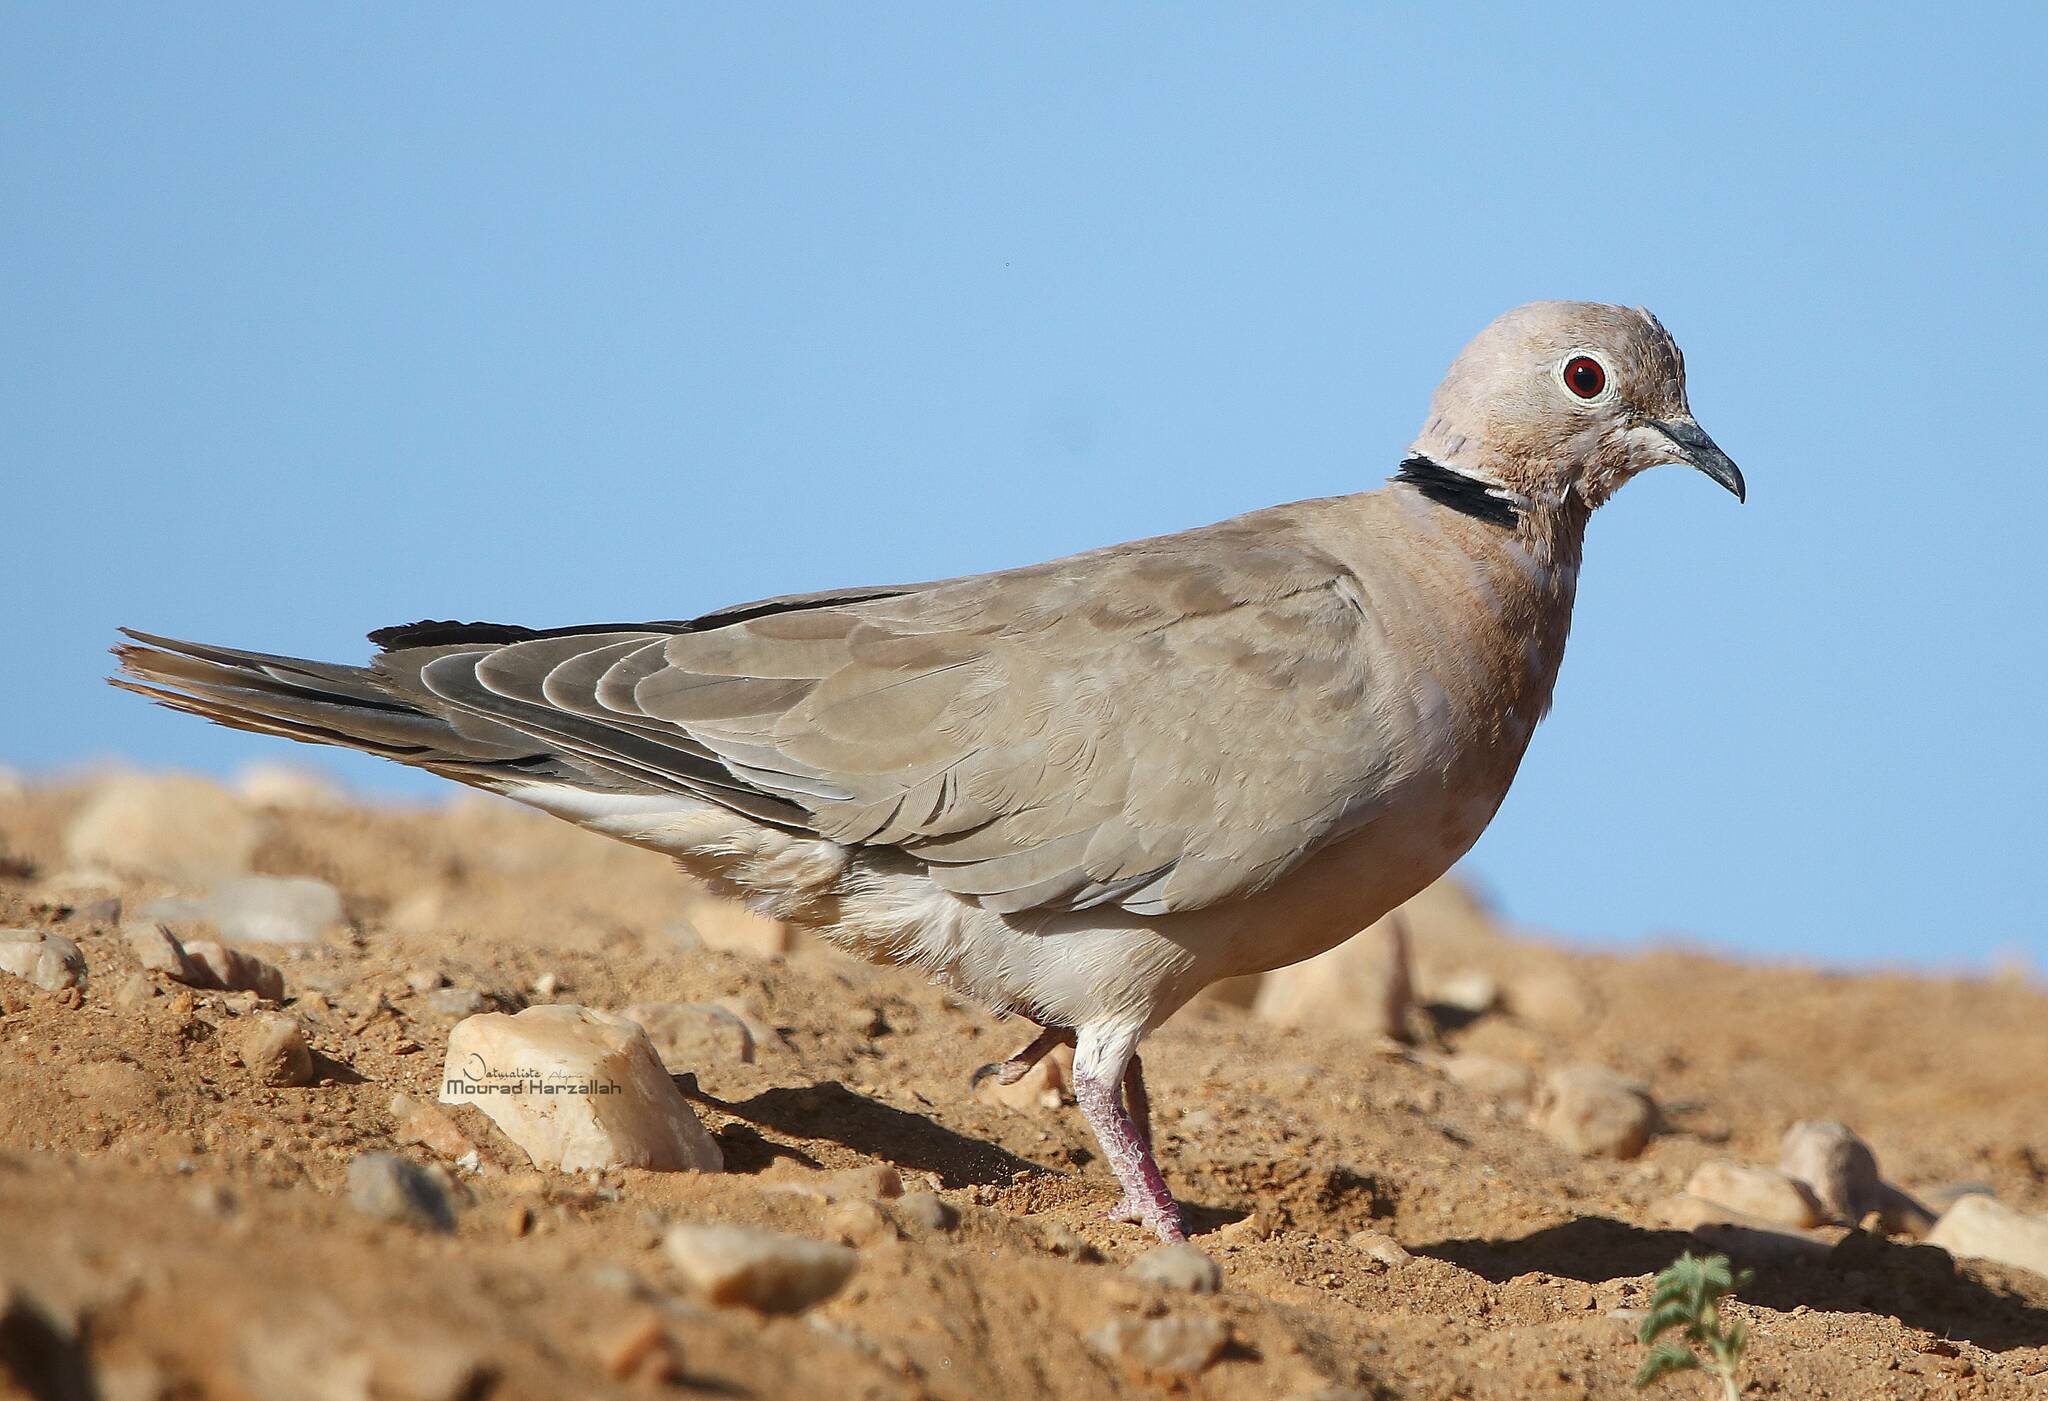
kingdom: Animalia
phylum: Chordata
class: Aves
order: Columbiformes
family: Columbidae
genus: Streptopelia
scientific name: Streptopelia roseogrisea
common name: African collared dove
